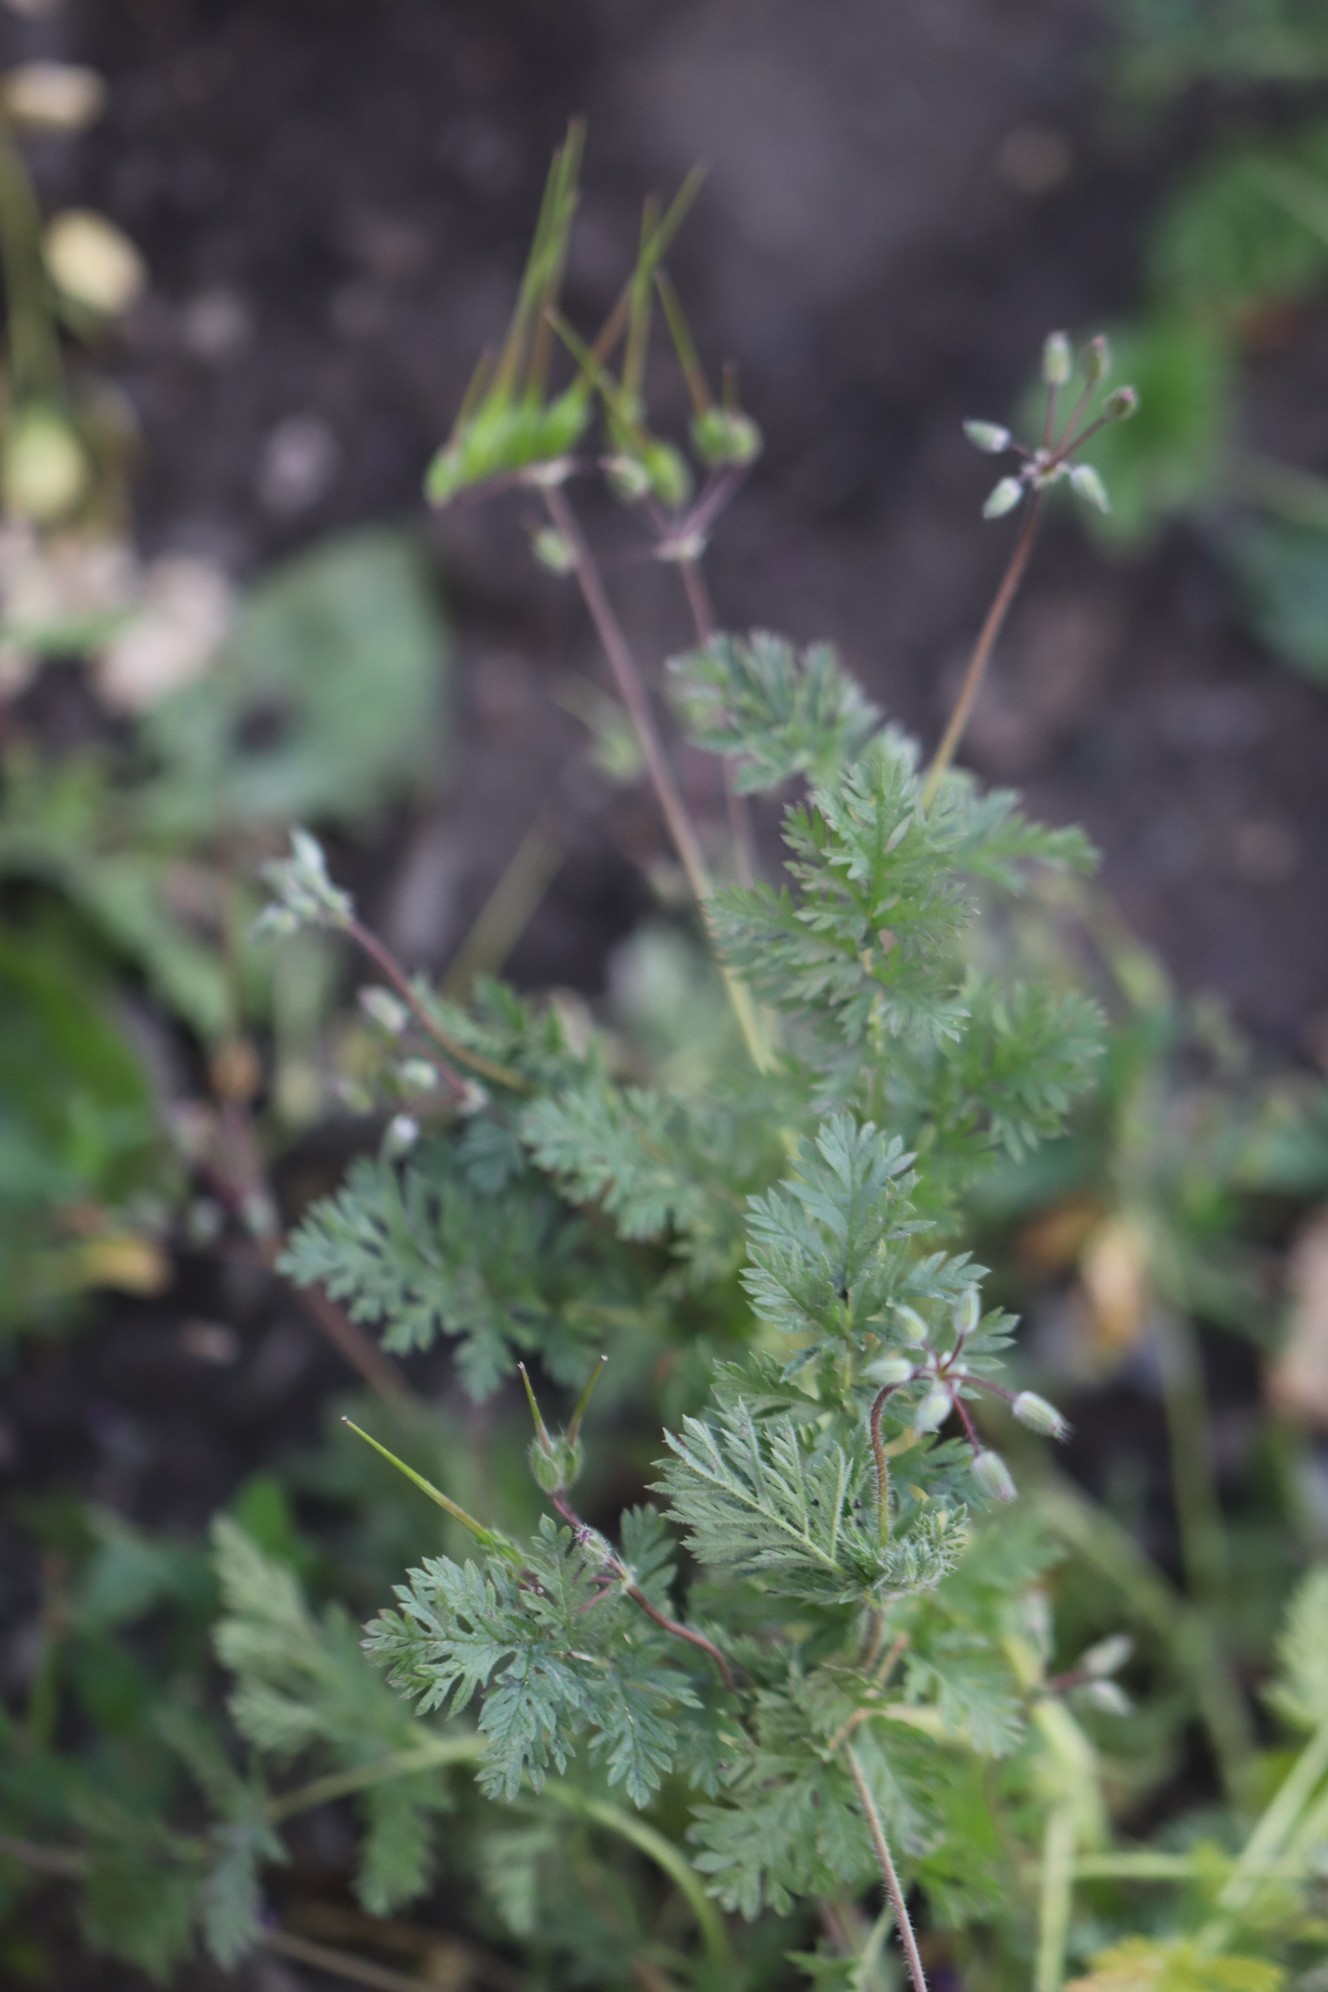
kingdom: Plantae
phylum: Tracheophyta
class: Magnoliopsida
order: Geraniales
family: Geraniaceae
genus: Erodium
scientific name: Erodium cicutarium
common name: Common stork's-bill
